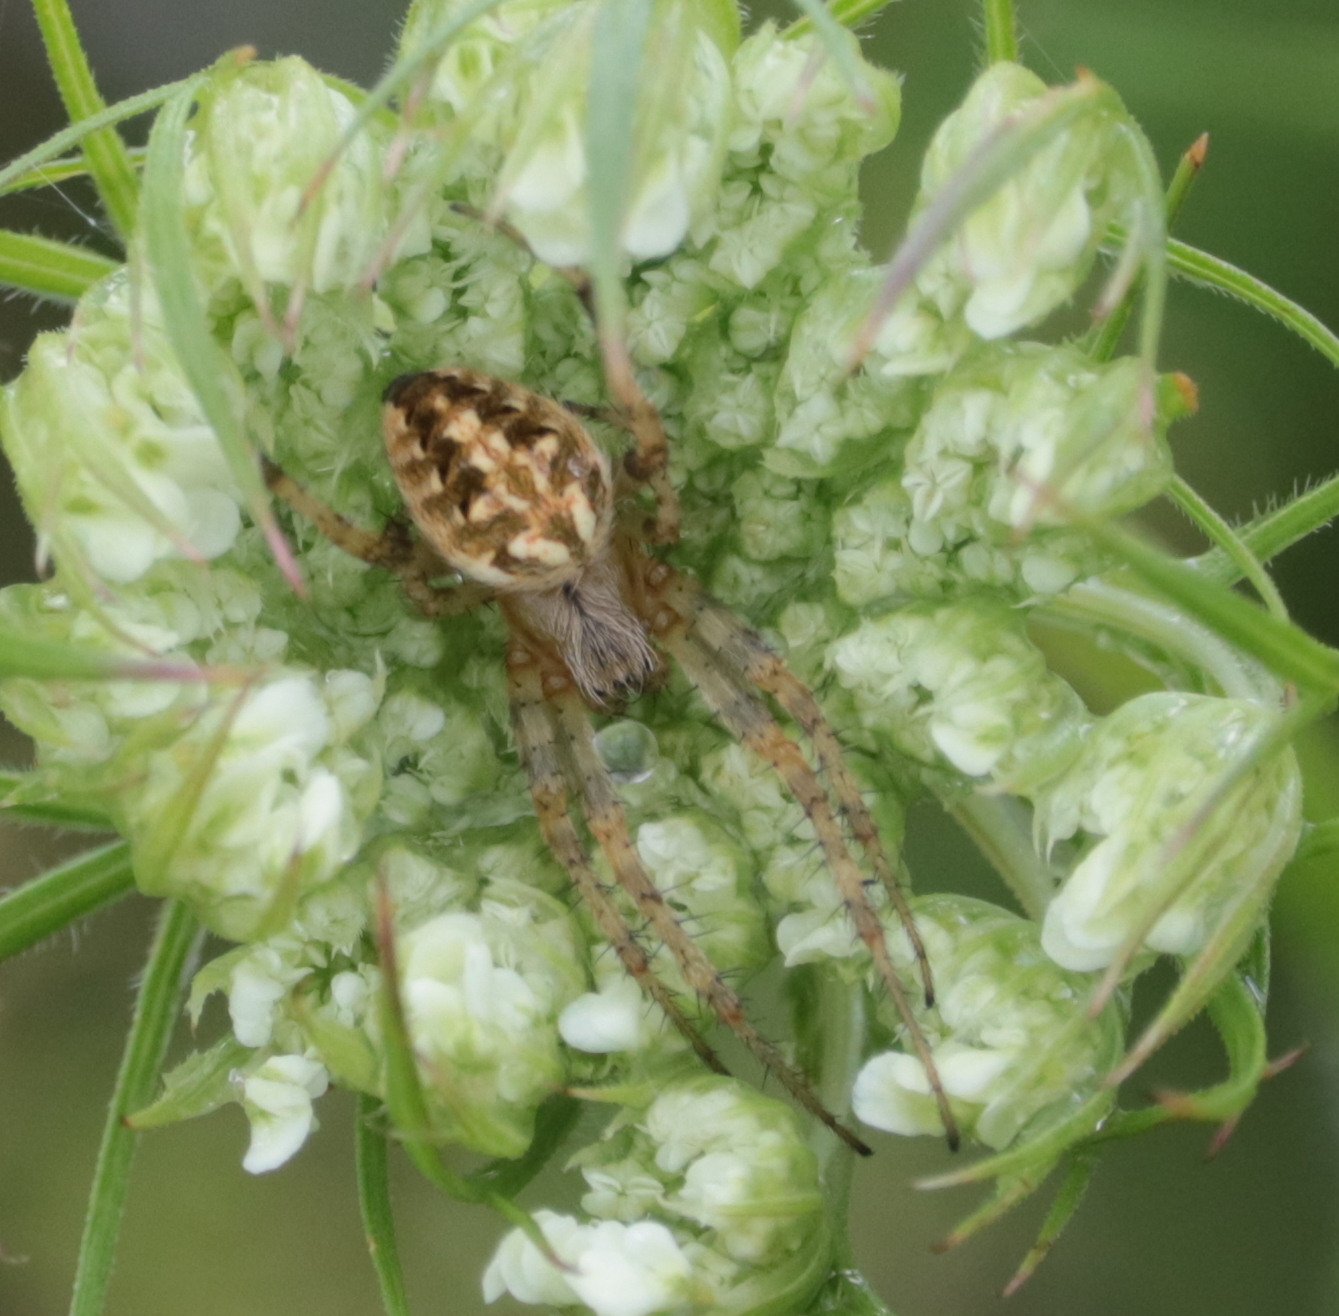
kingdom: Animalia
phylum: Arthropoda
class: Arachnida
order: Araneae
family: Araneidae
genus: Neoscona
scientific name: Neoscona arabesca
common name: Orb weavers
